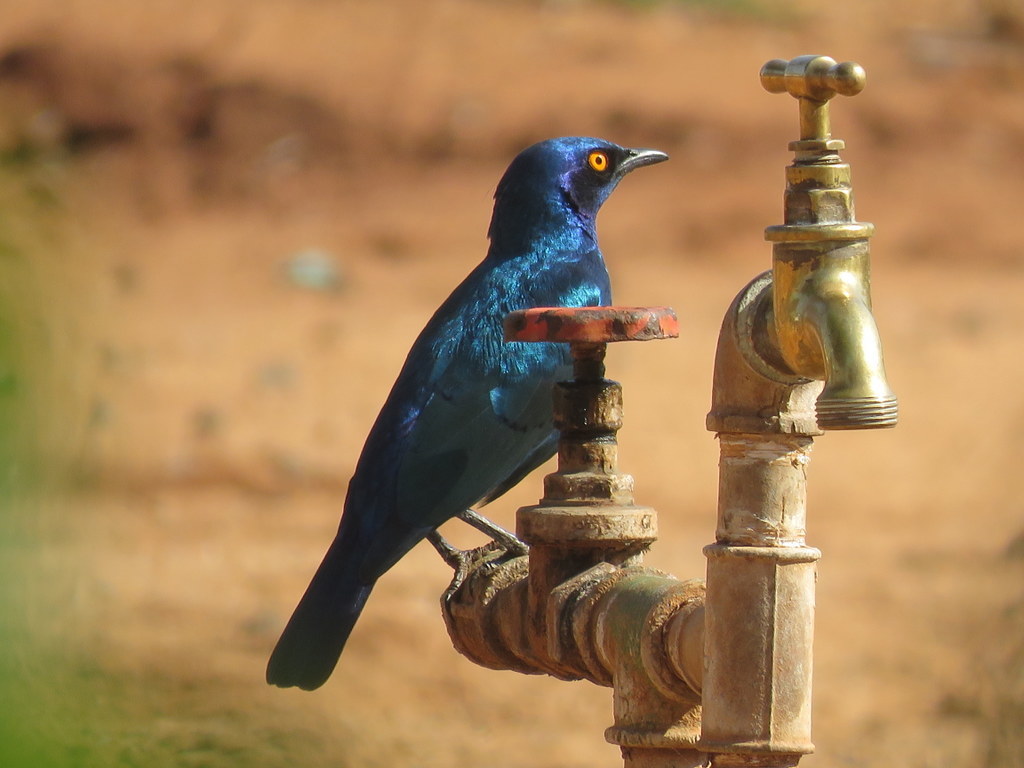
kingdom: Animalia
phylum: Chordata
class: Aves
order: Passeriformes
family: Sturnidae
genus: Lamprotornis
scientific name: Lamprotornis chalybaeus
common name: Greater blue-eared starling
